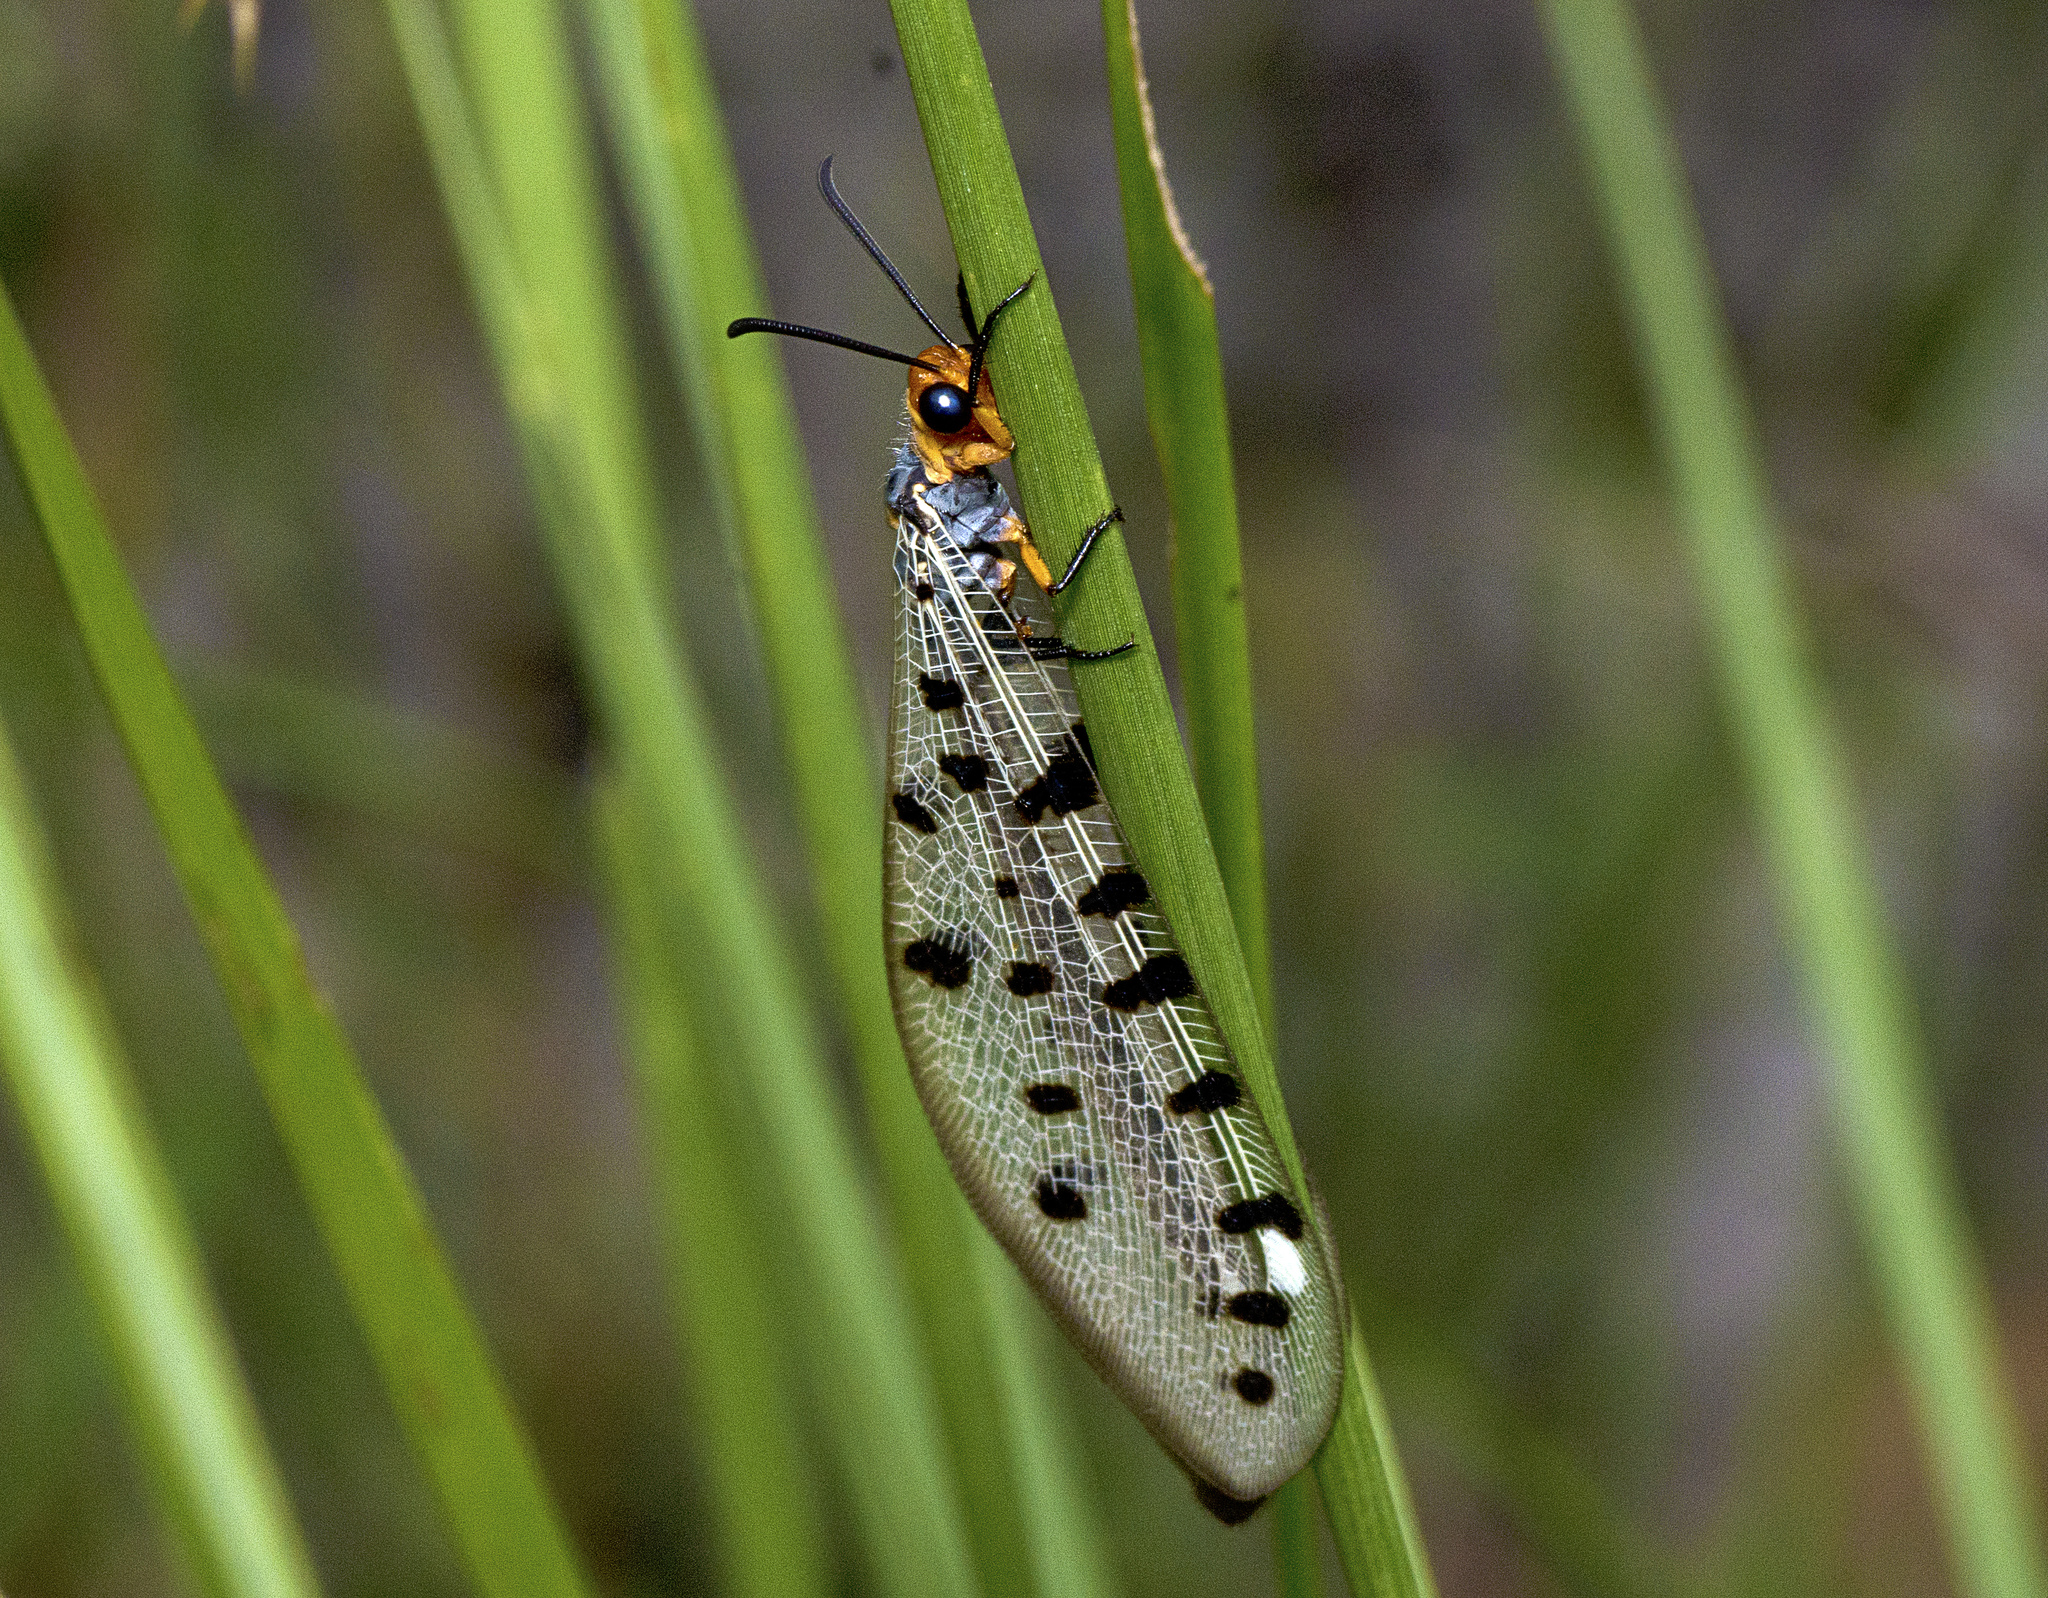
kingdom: Animalia
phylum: Arthropoda
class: Insecta
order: Neuroptera
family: Myrmeleontidae
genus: Myrmeleon
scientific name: Myrmeleon erythrocephalus
